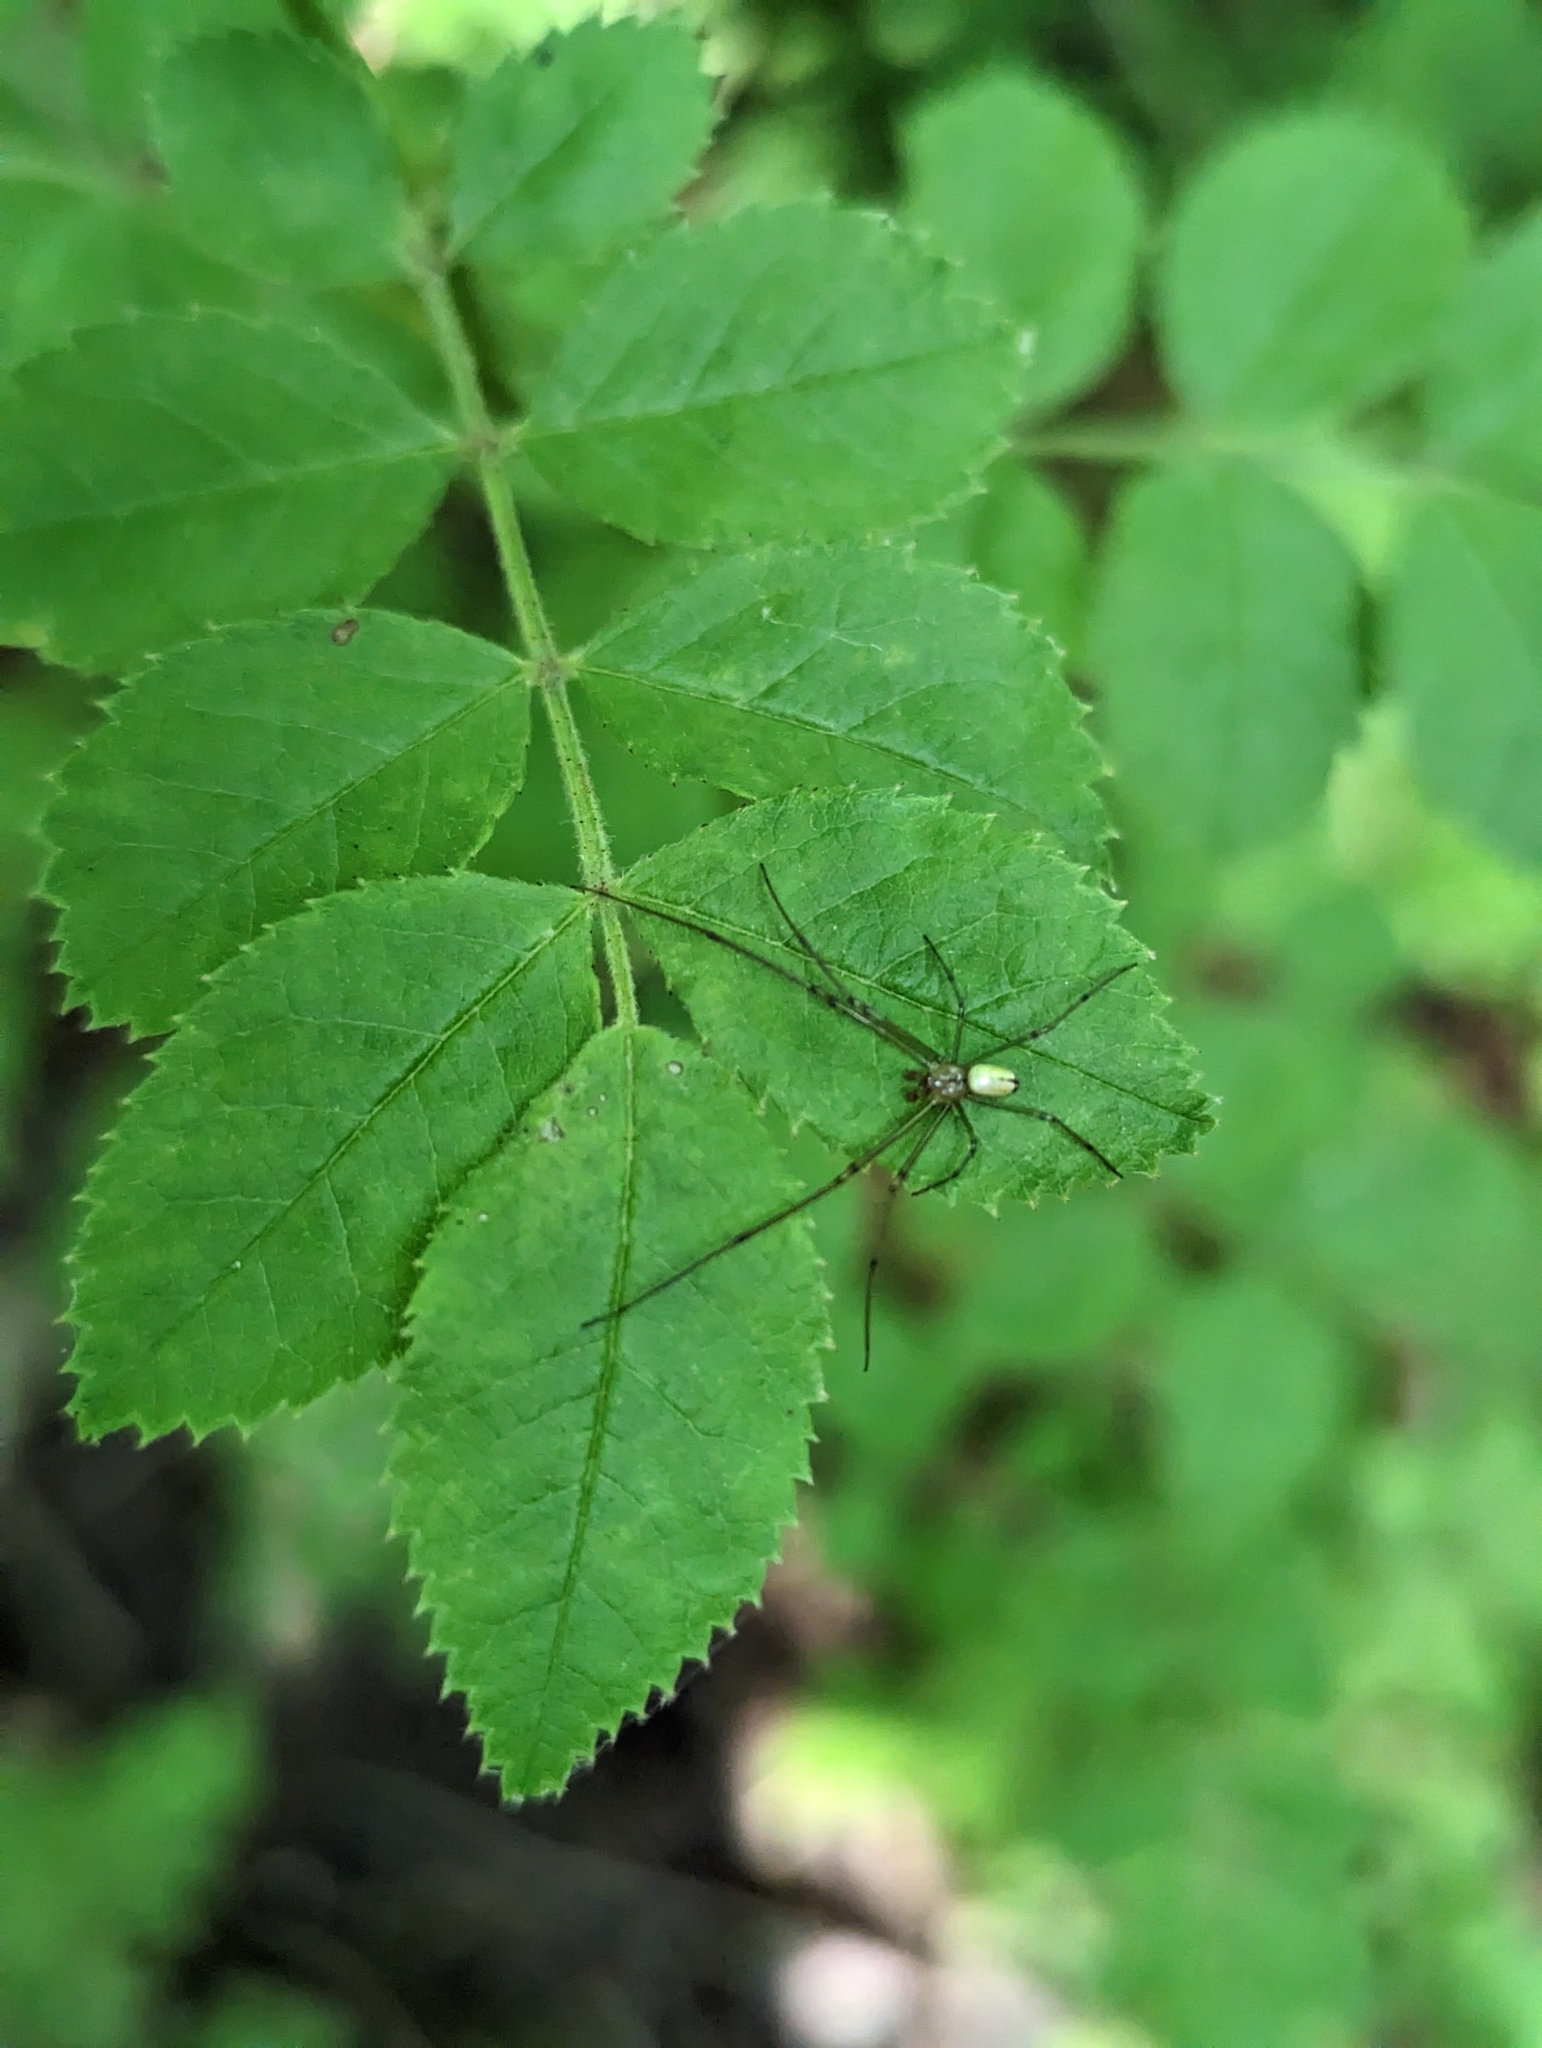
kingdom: Animalia
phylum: Arthropoda
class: Arachnida
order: Araneae
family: Tetragnathidae
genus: Leucauge
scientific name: Leucauge venusta
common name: Longjawed orb weavers
